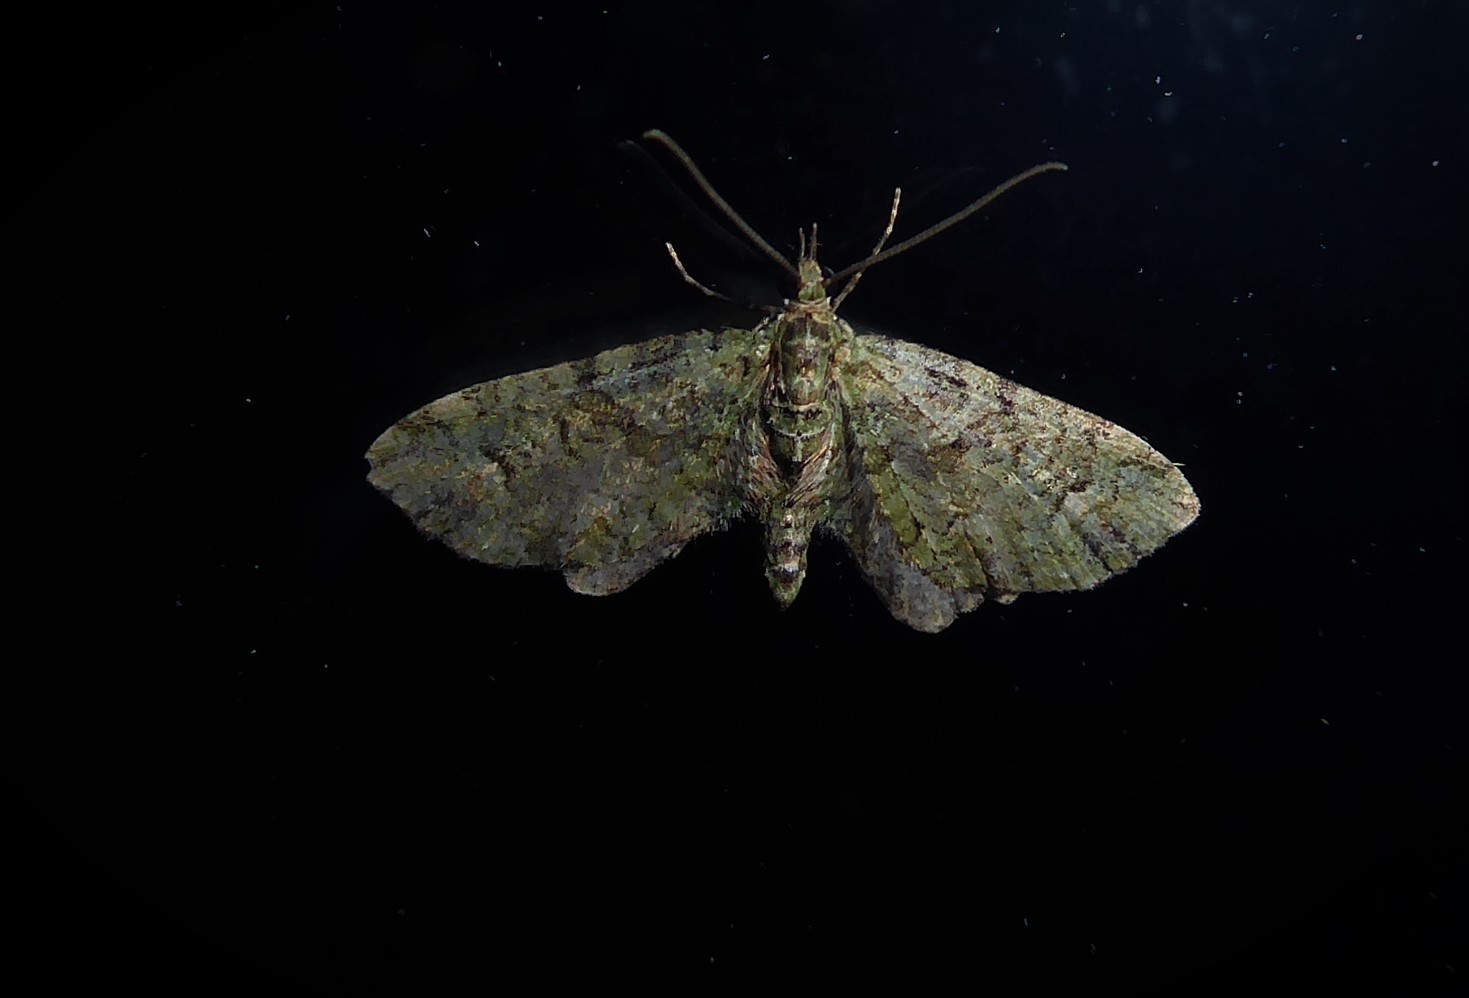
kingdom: Animalia
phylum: Arthropoda
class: Insecta
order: Lepidoptera
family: Geometridae
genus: Idaea
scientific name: Idaea mutanda
